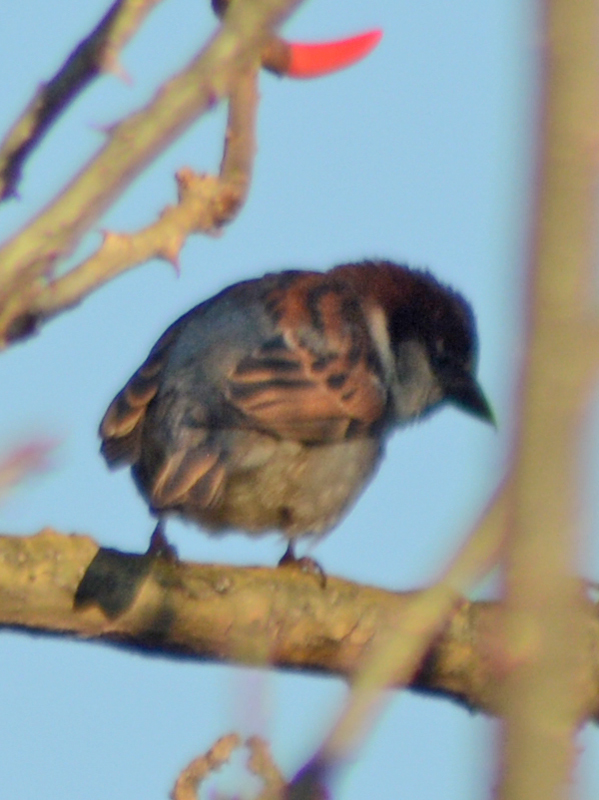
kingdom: Animalia
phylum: Chordata
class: Aves
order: Passeriformes
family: Passeridae
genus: Passer
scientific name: Passer domesticus
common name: House sparrow
